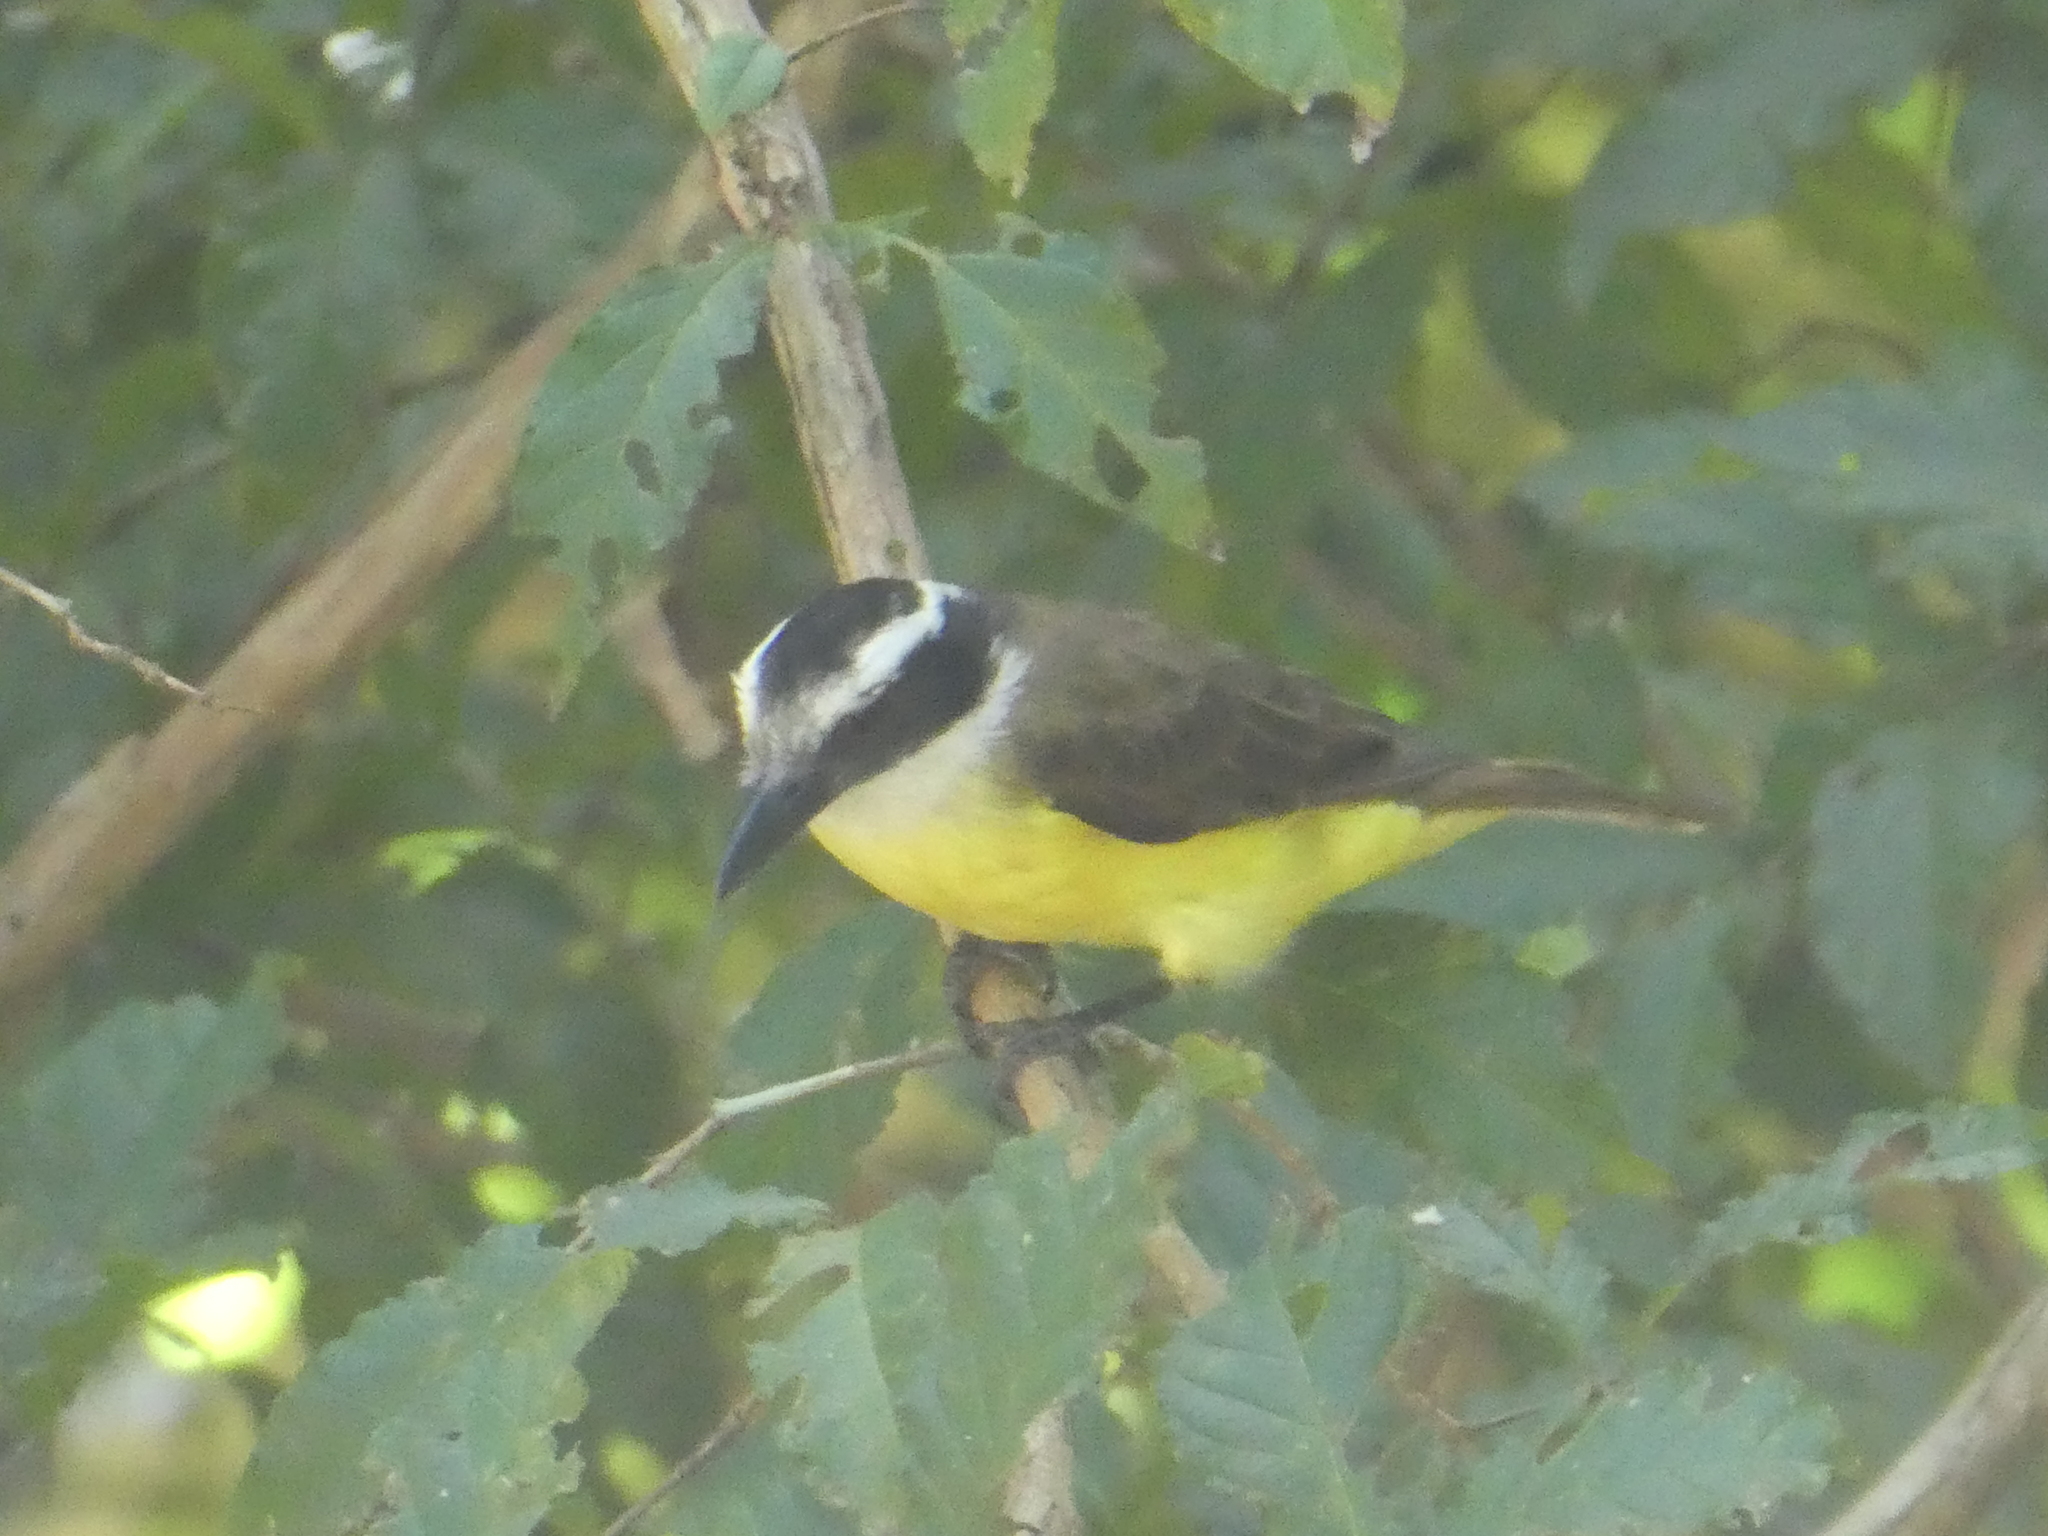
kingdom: Animalia
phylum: Chordata
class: Aves
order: Passeriformes
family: Tyrannidae
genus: Pitangus
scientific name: Pitangus sulphuratus
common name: Great kiskadee
